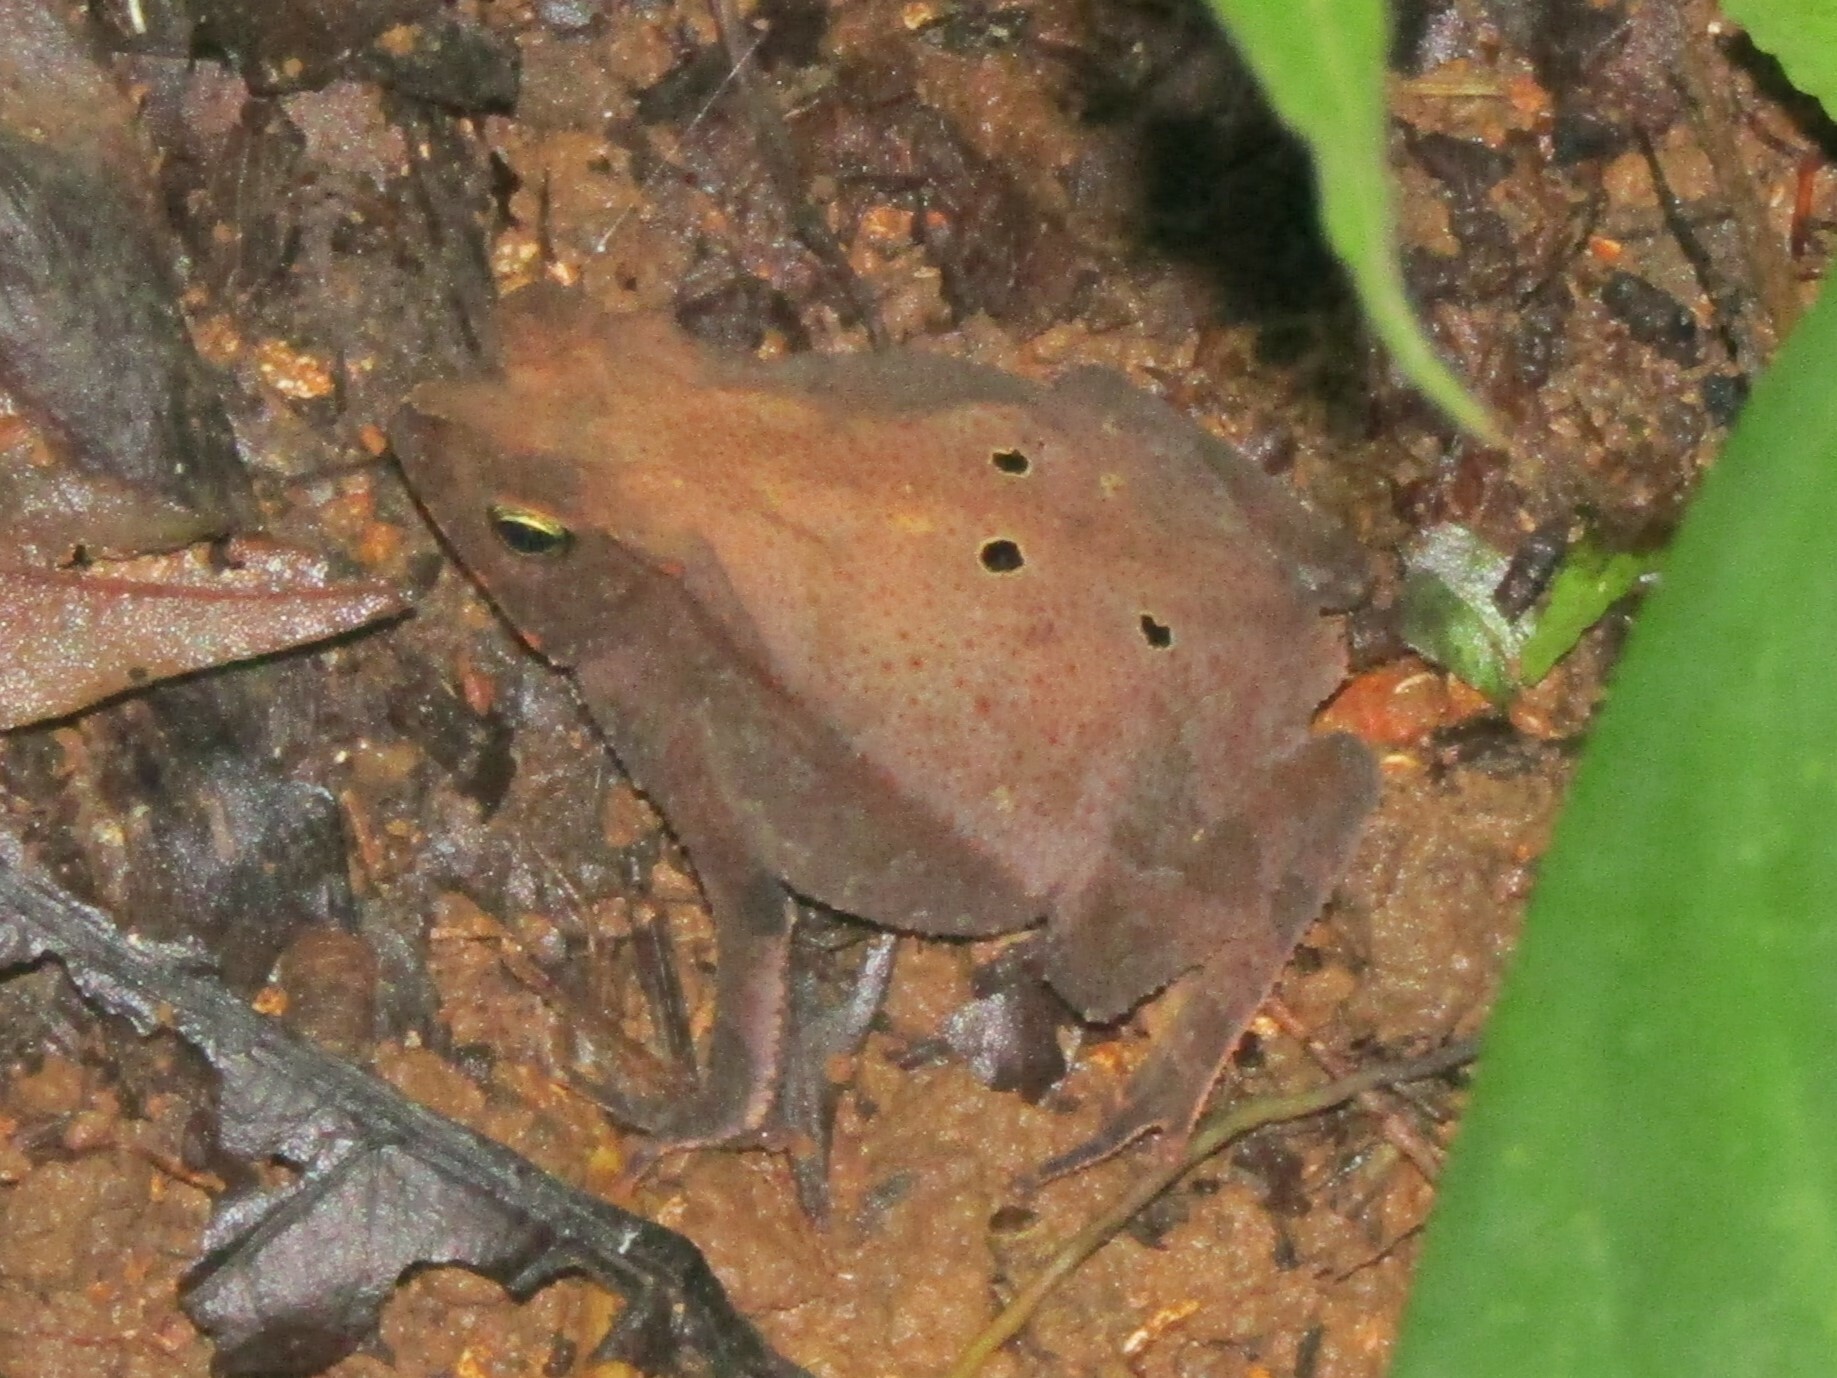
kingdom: Animalia
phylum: Chordata
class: Amphibia
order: Anura
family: Bufonidae
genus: Rhinella
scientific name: Rhinella alata
